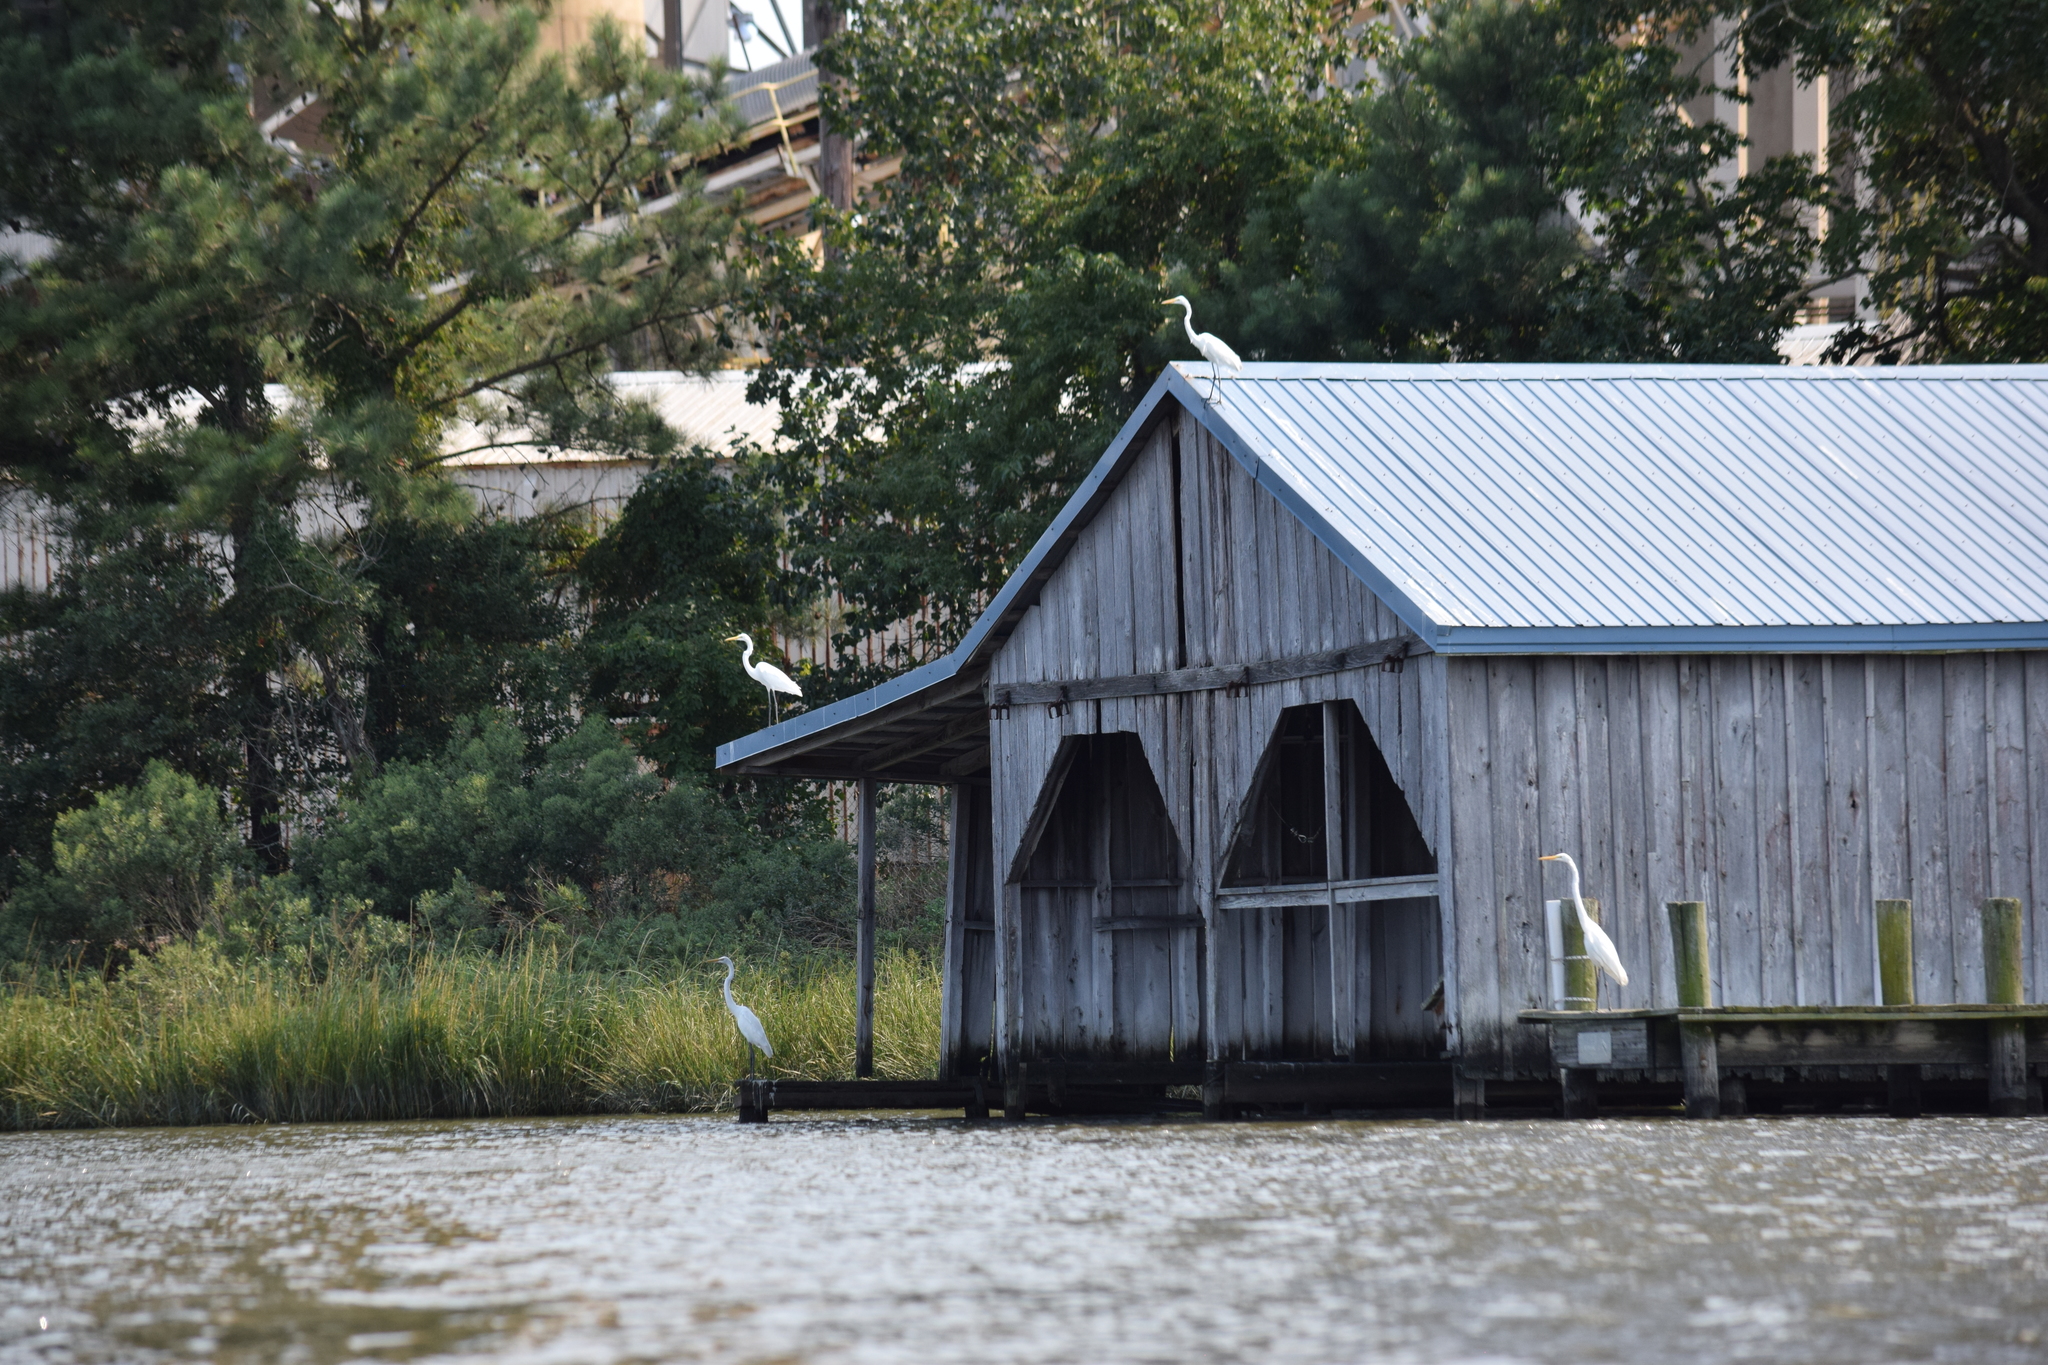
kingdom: Animalia
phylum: Chordata
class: Aves
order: Pelecaniformes
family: Ardeidae
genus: Ardea
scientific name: Ardea alba
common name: Great egret
